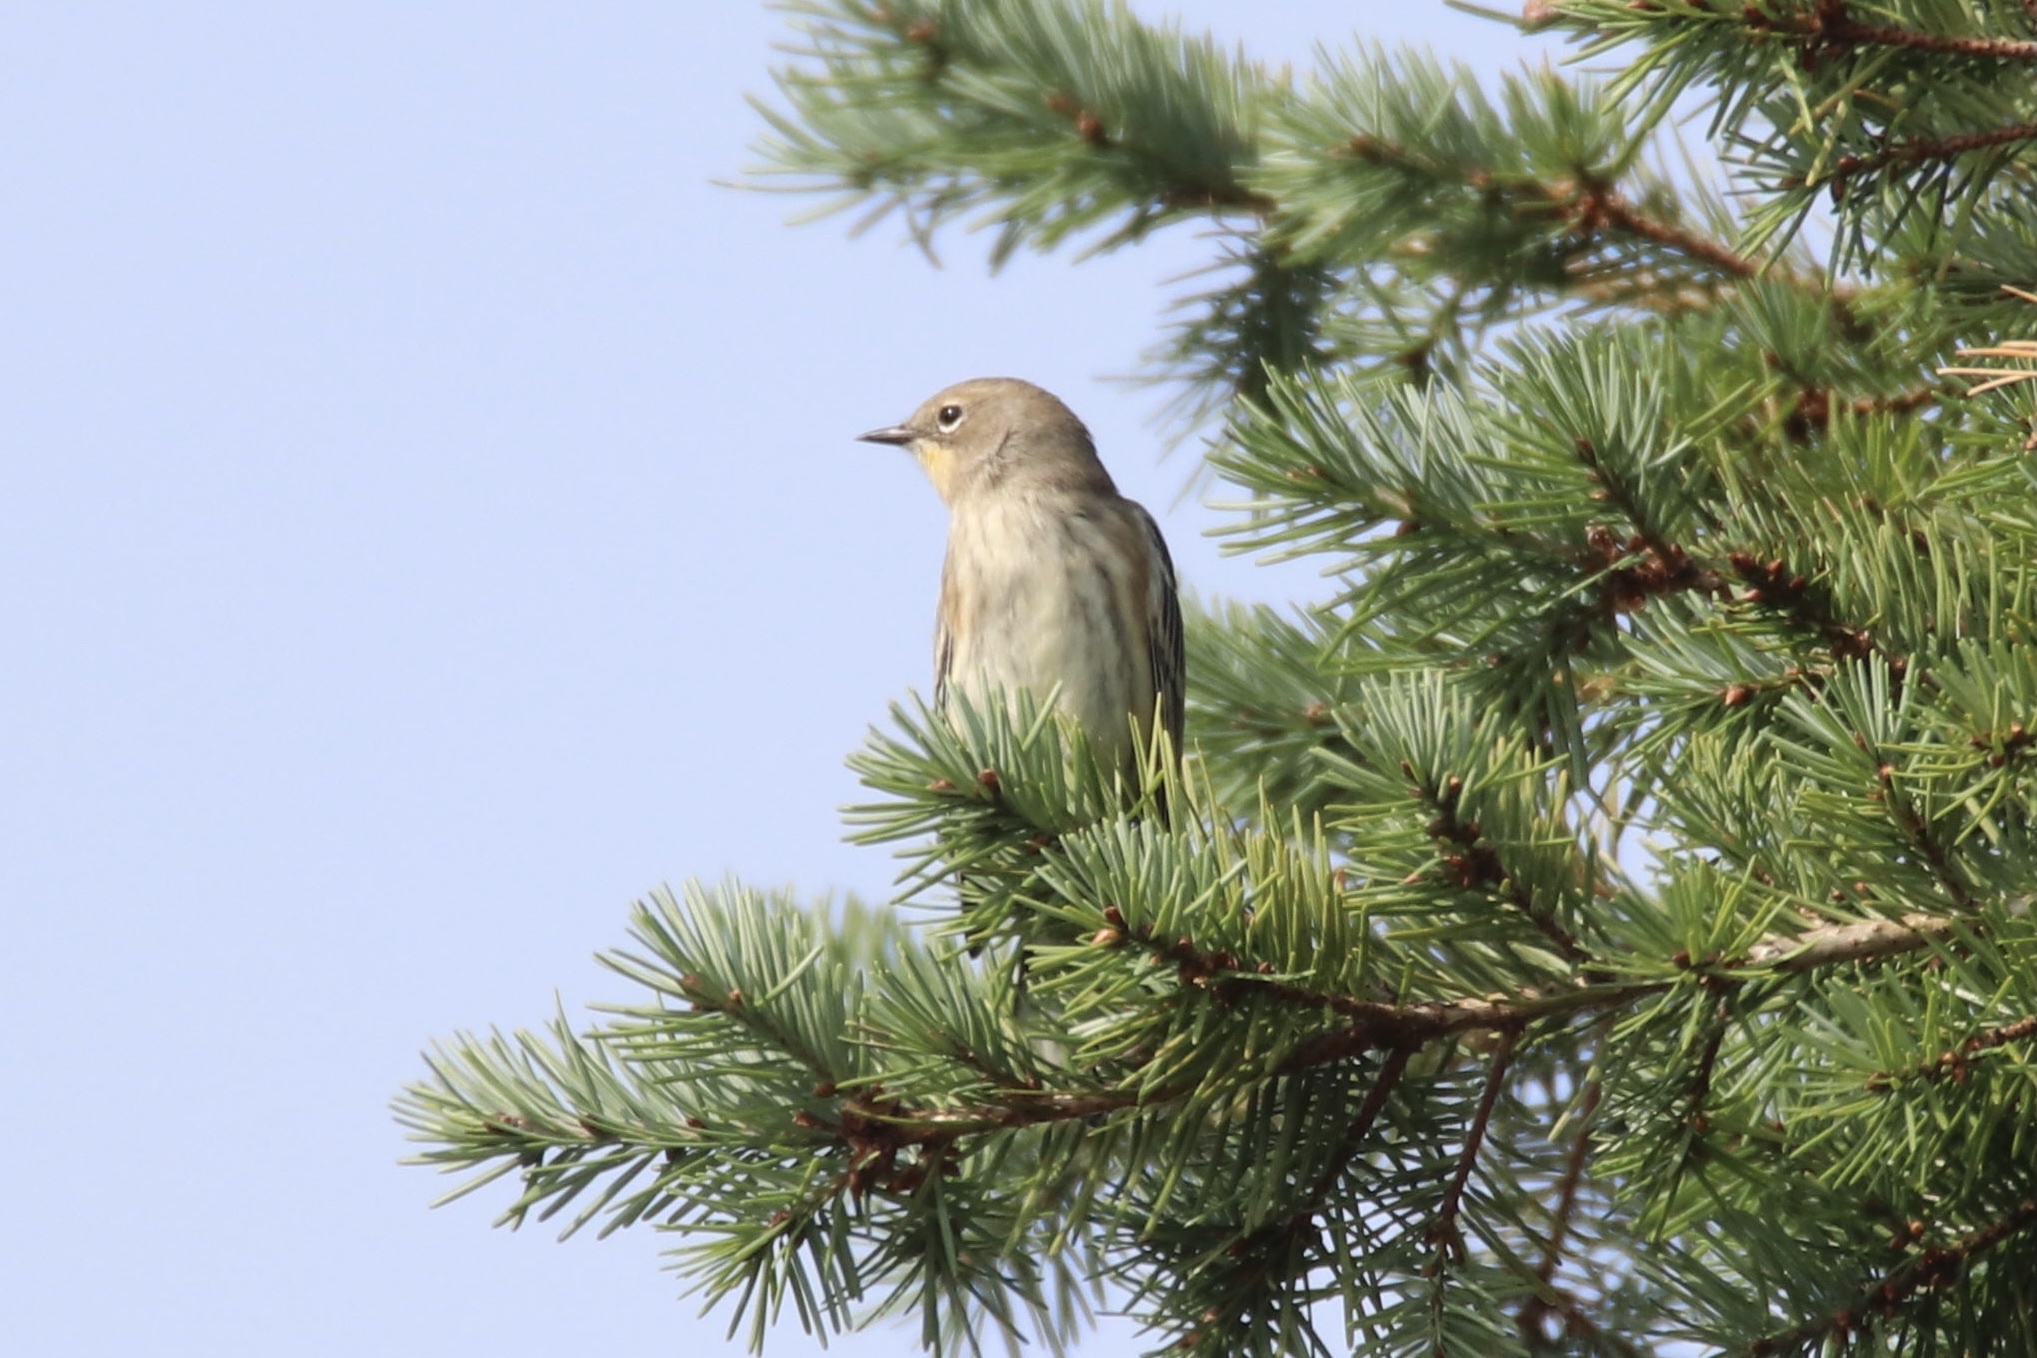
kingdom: Animalia
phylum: Chordata
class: Aves
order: Passeriformes
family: Parulidae
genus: Setophaga
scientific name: Setophaga coronata
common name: Myrtle warbler
